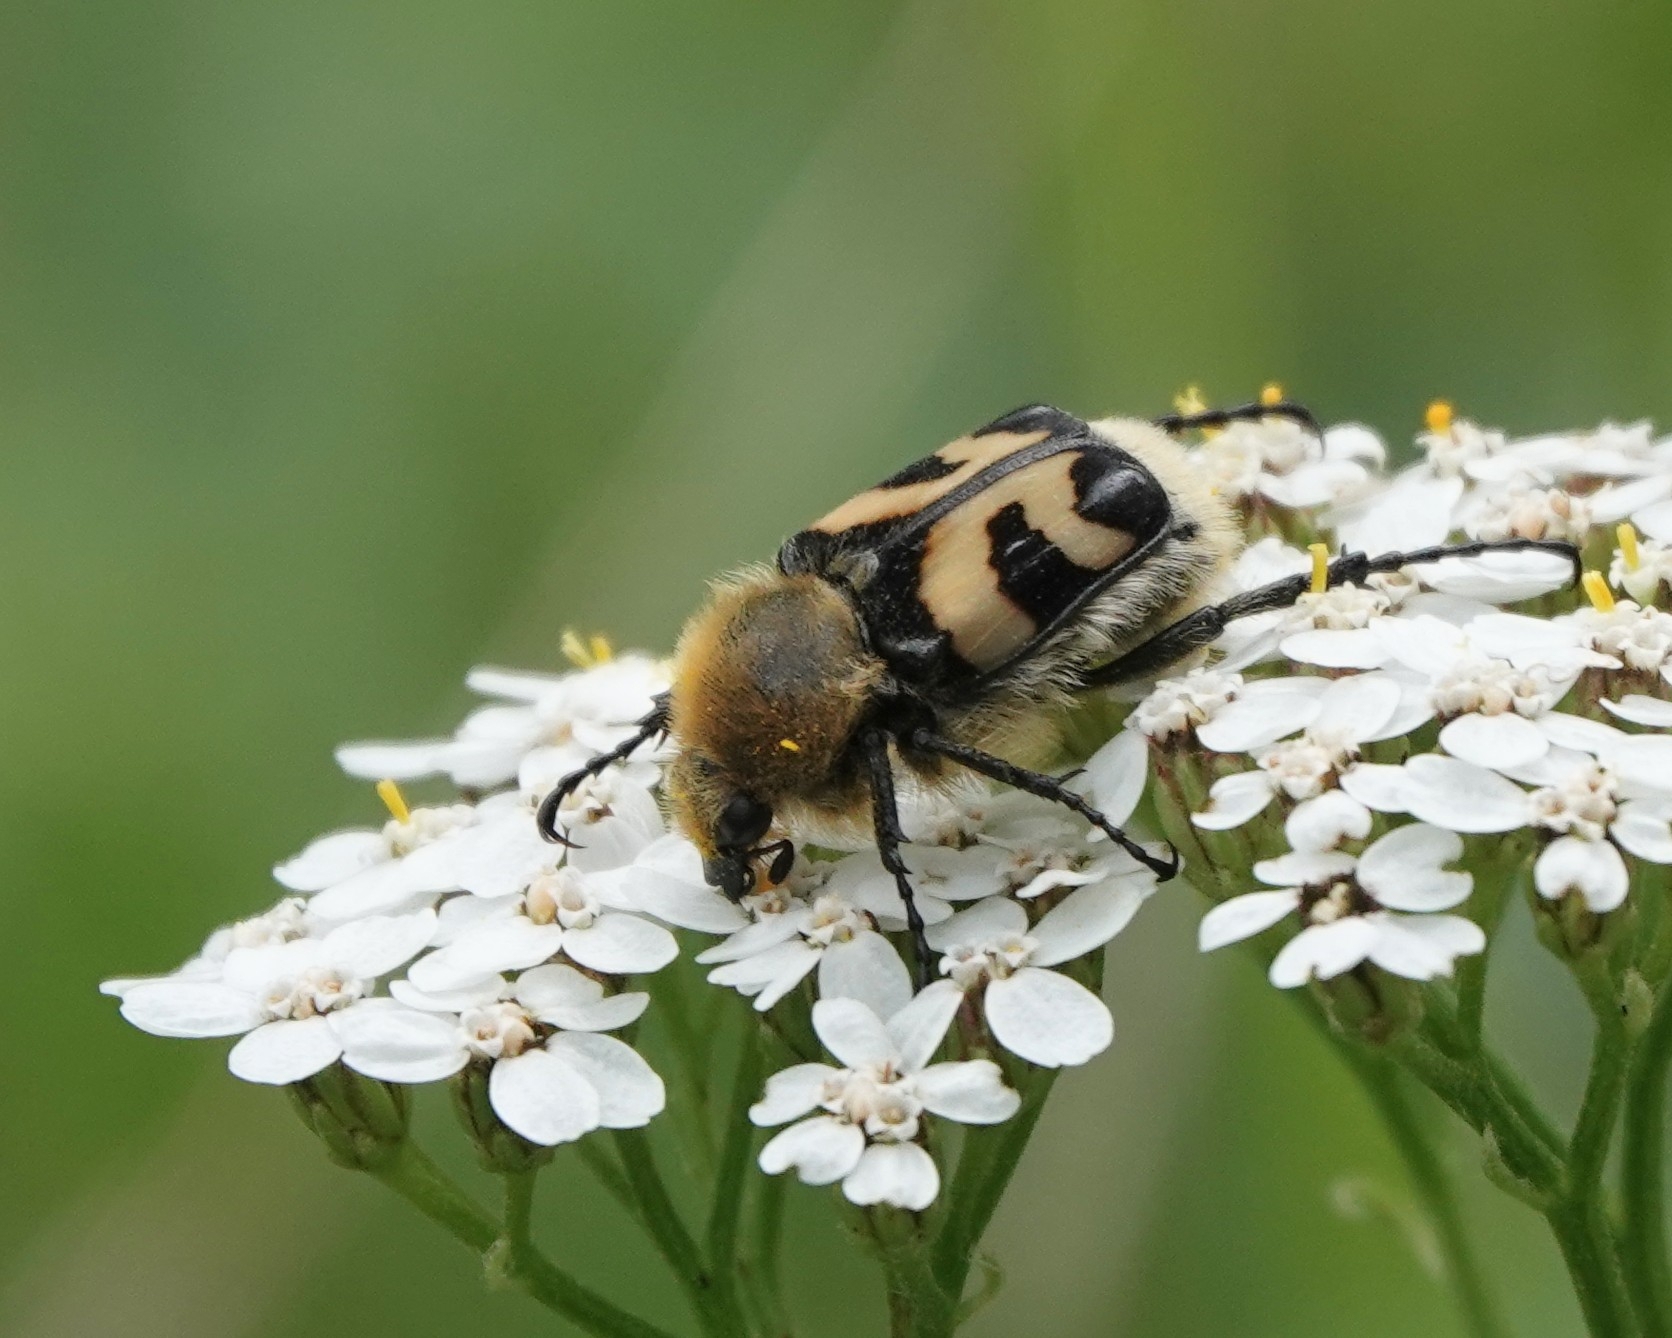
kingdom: Animalia
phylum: Arthropoda
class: Insecta
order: Coleoptera
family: Scarabaeidae
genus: Trichius
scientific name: Trichius fasciatus
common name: Bee beetle
